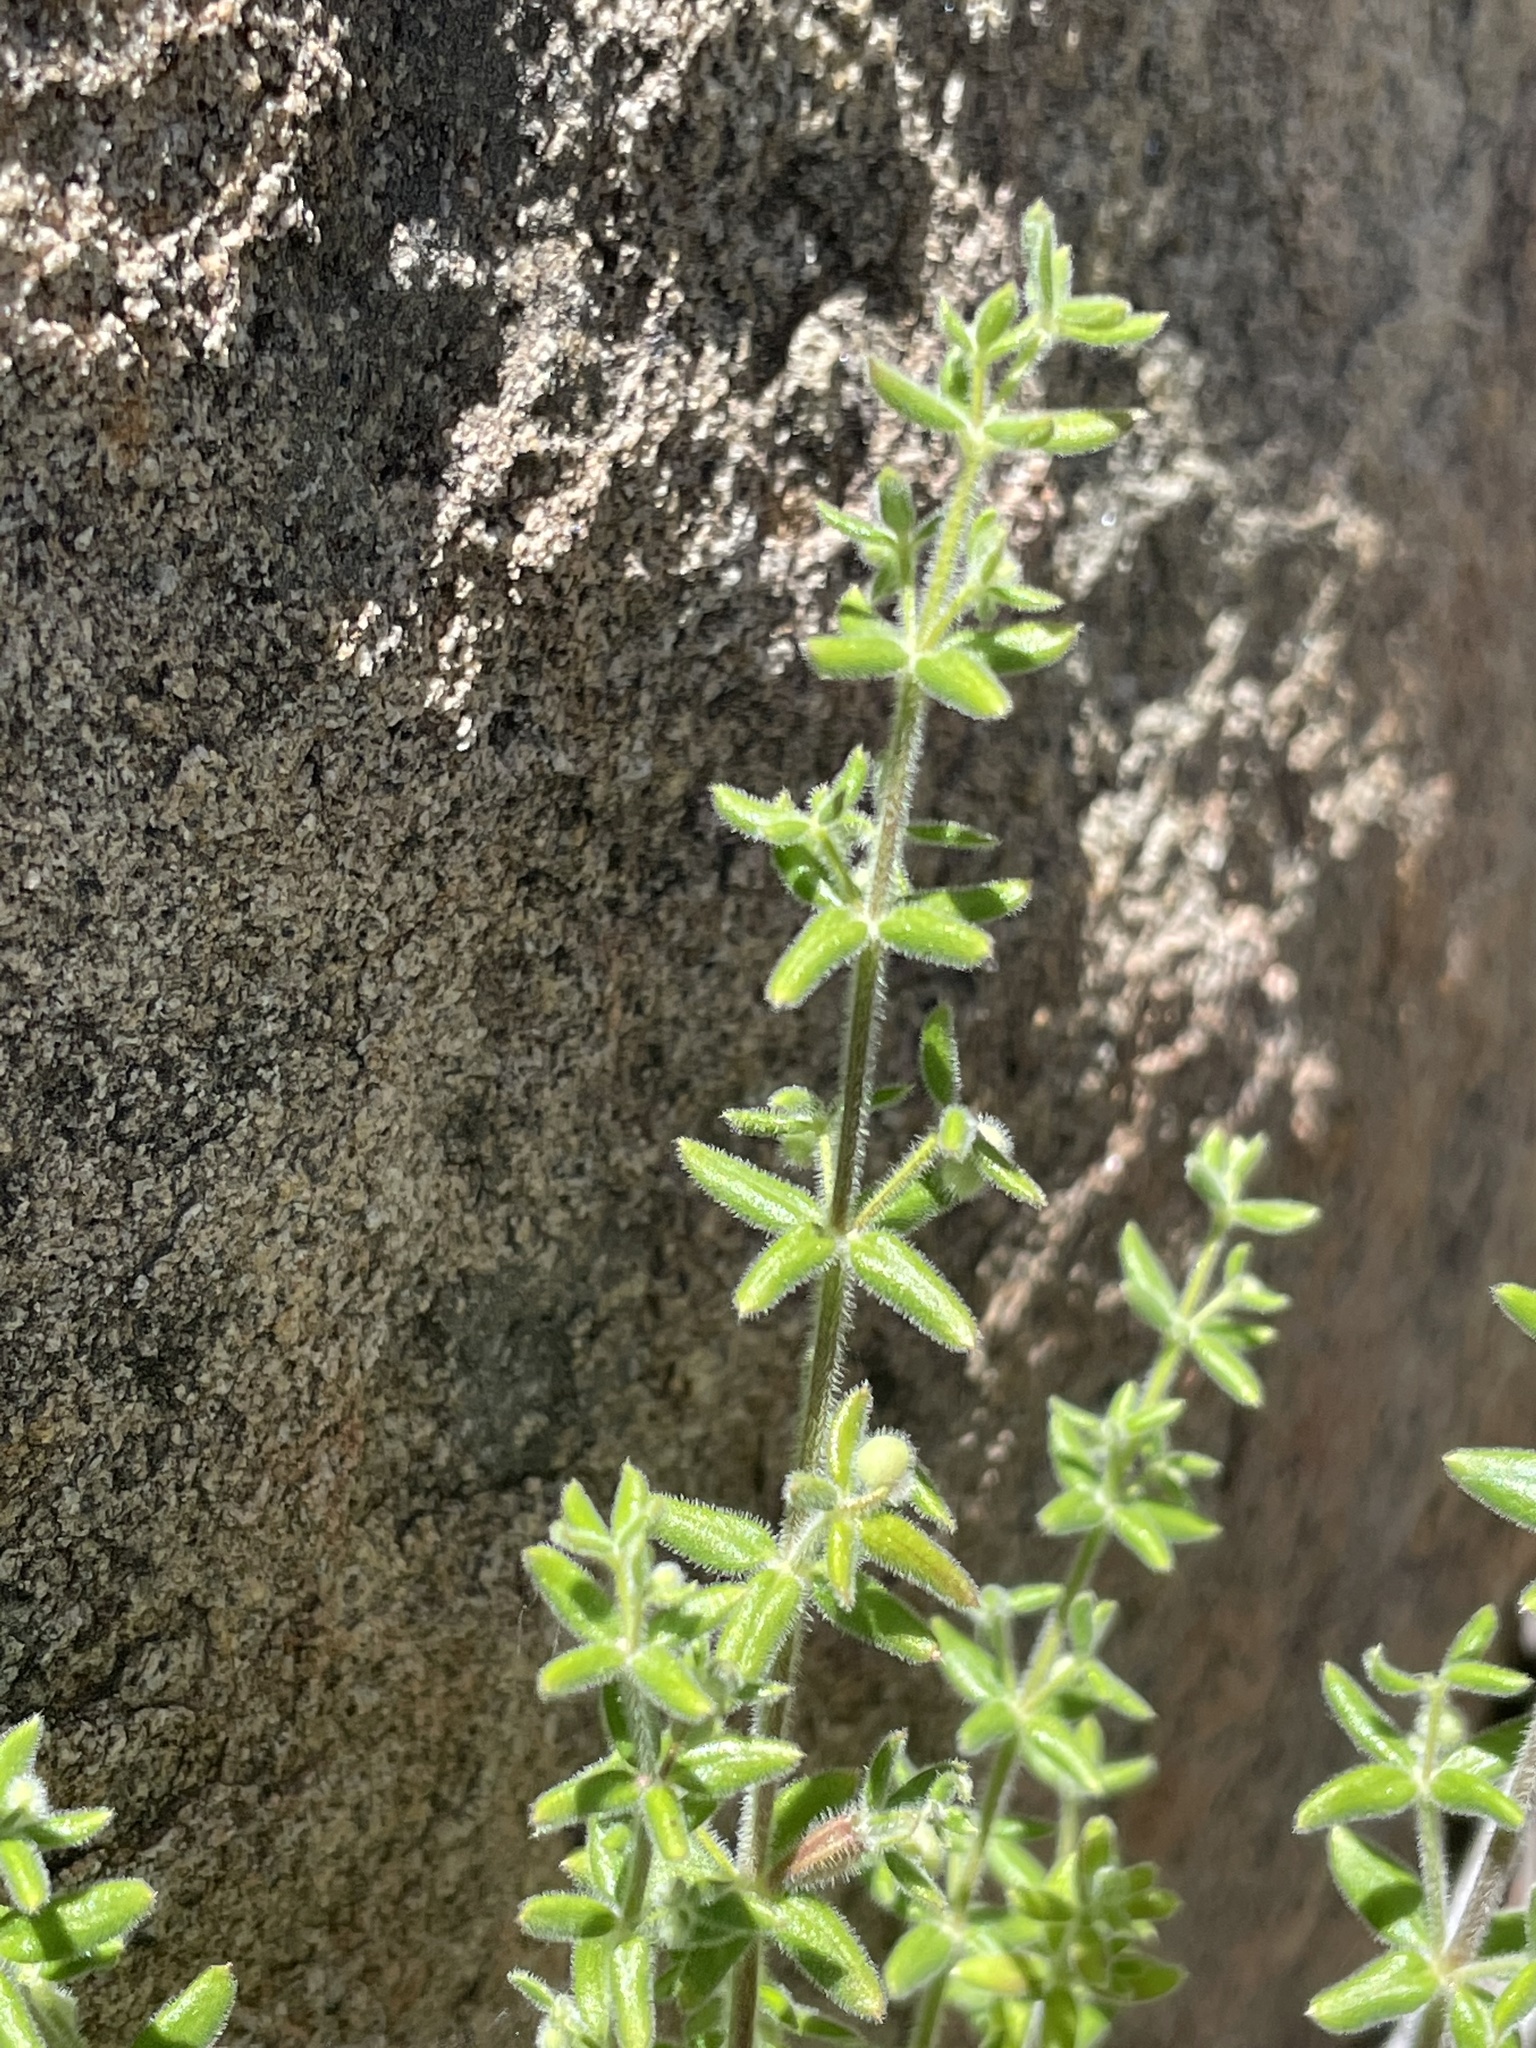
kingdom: Plantae
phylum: Tracheophyta
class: Magnoliopsida
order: Gentianales
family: Rubiaceae
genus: Galium
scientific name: Galium martirense
